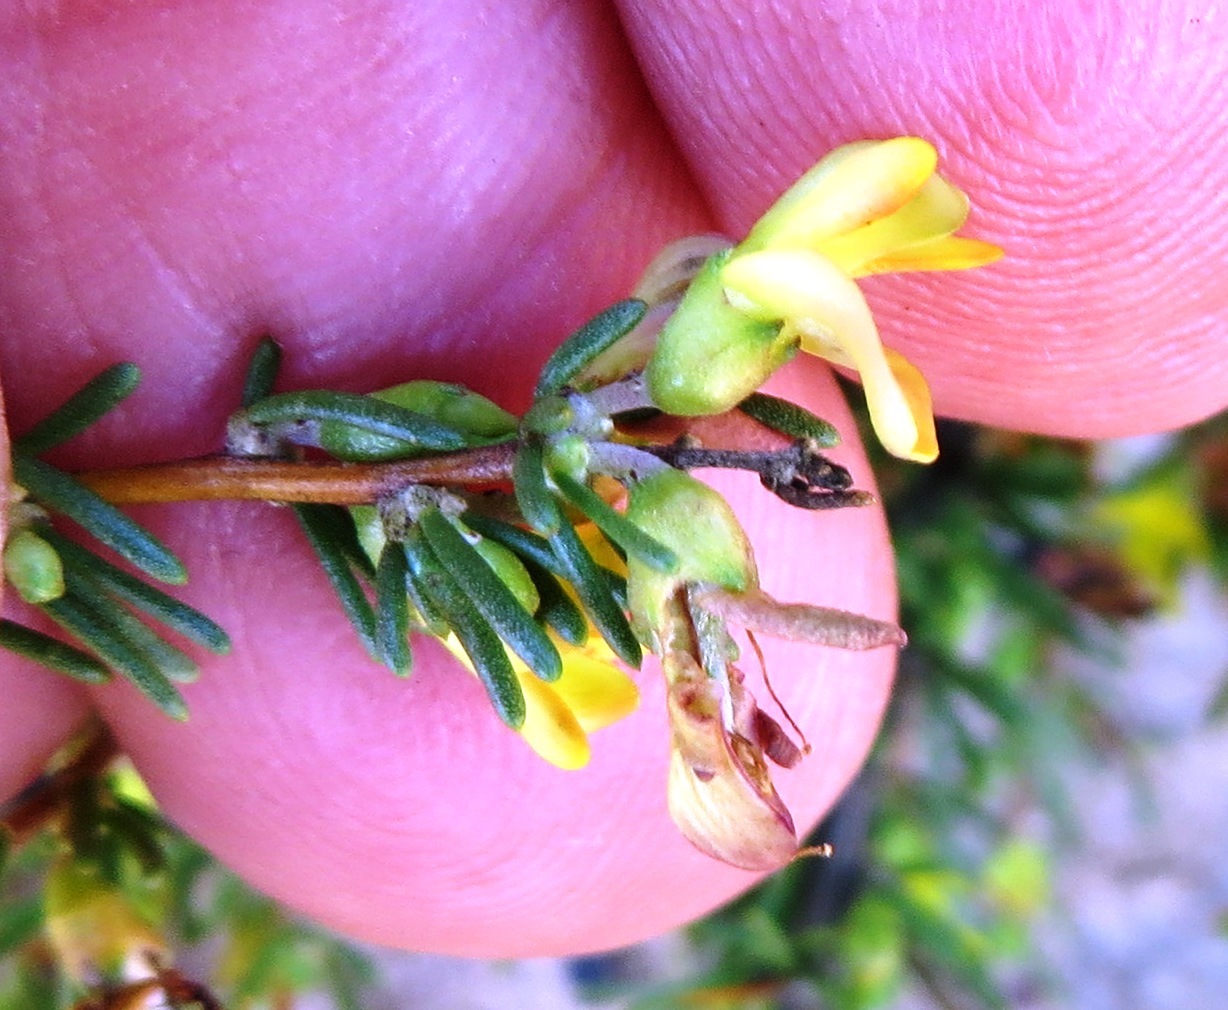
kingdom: Plantae
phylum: Tracheophyta
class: Magnoliopsida
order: Fabales
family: Fabaceae
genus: Aspalathus
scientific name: Aspalathus spinosa
